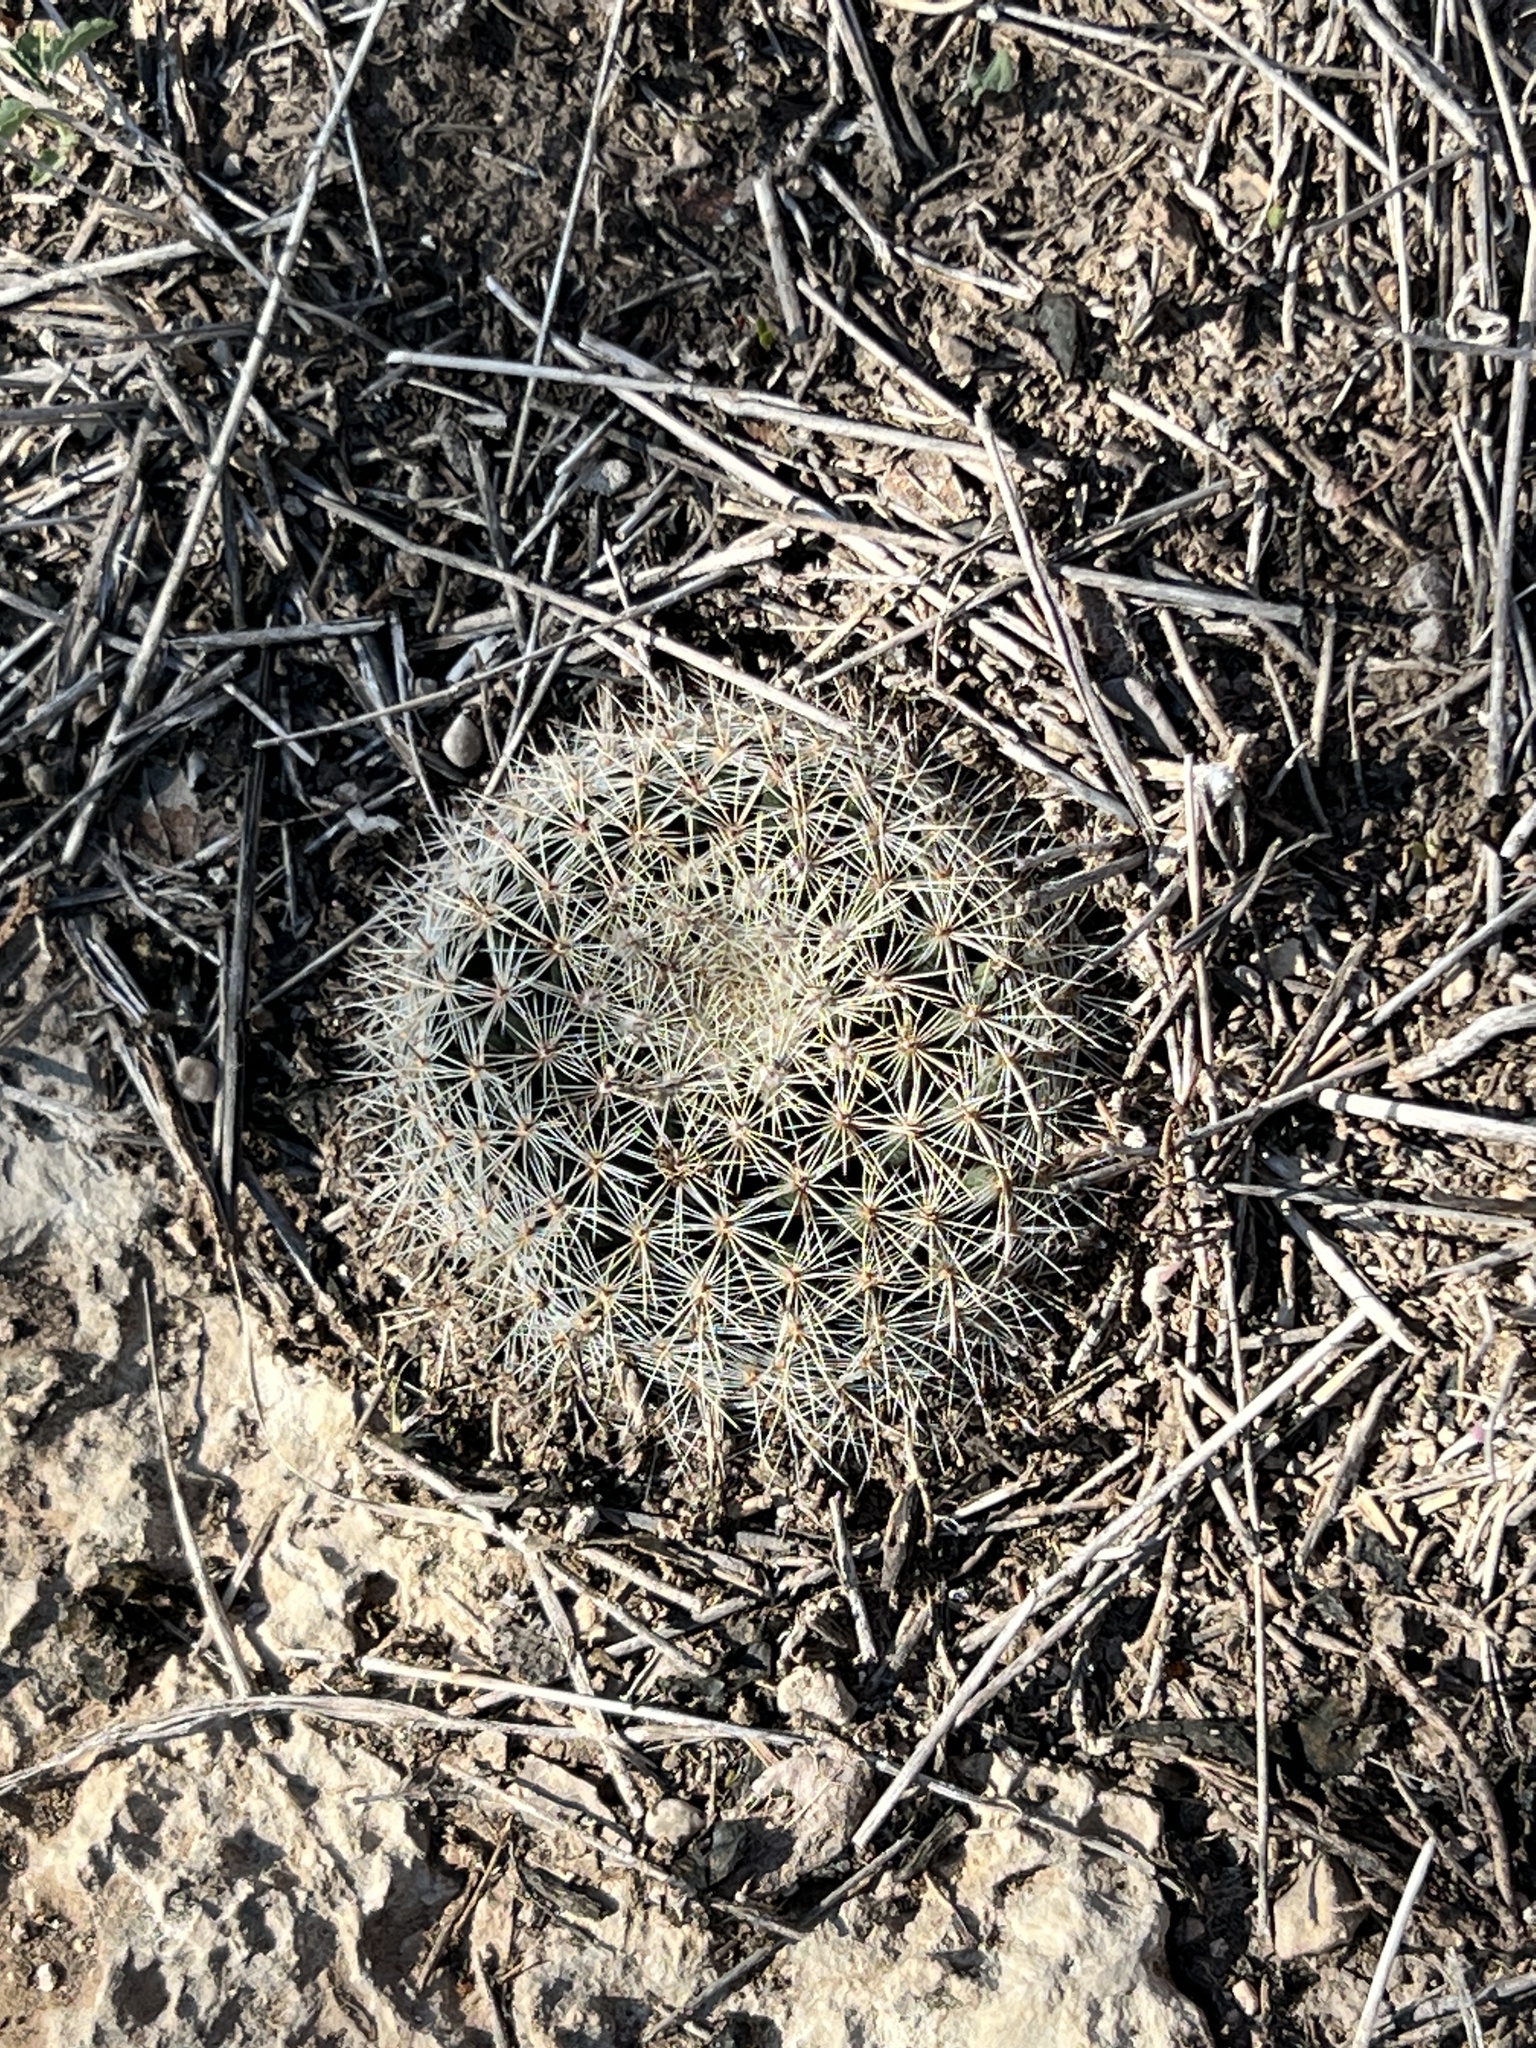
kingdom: Plantae
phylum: Tracheophyta
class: Magnoliopsida
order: Caryophyllales
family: Cactaceae
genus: Mammillaria
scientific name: Mammillaria heyderi
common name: Little nipple cactus
